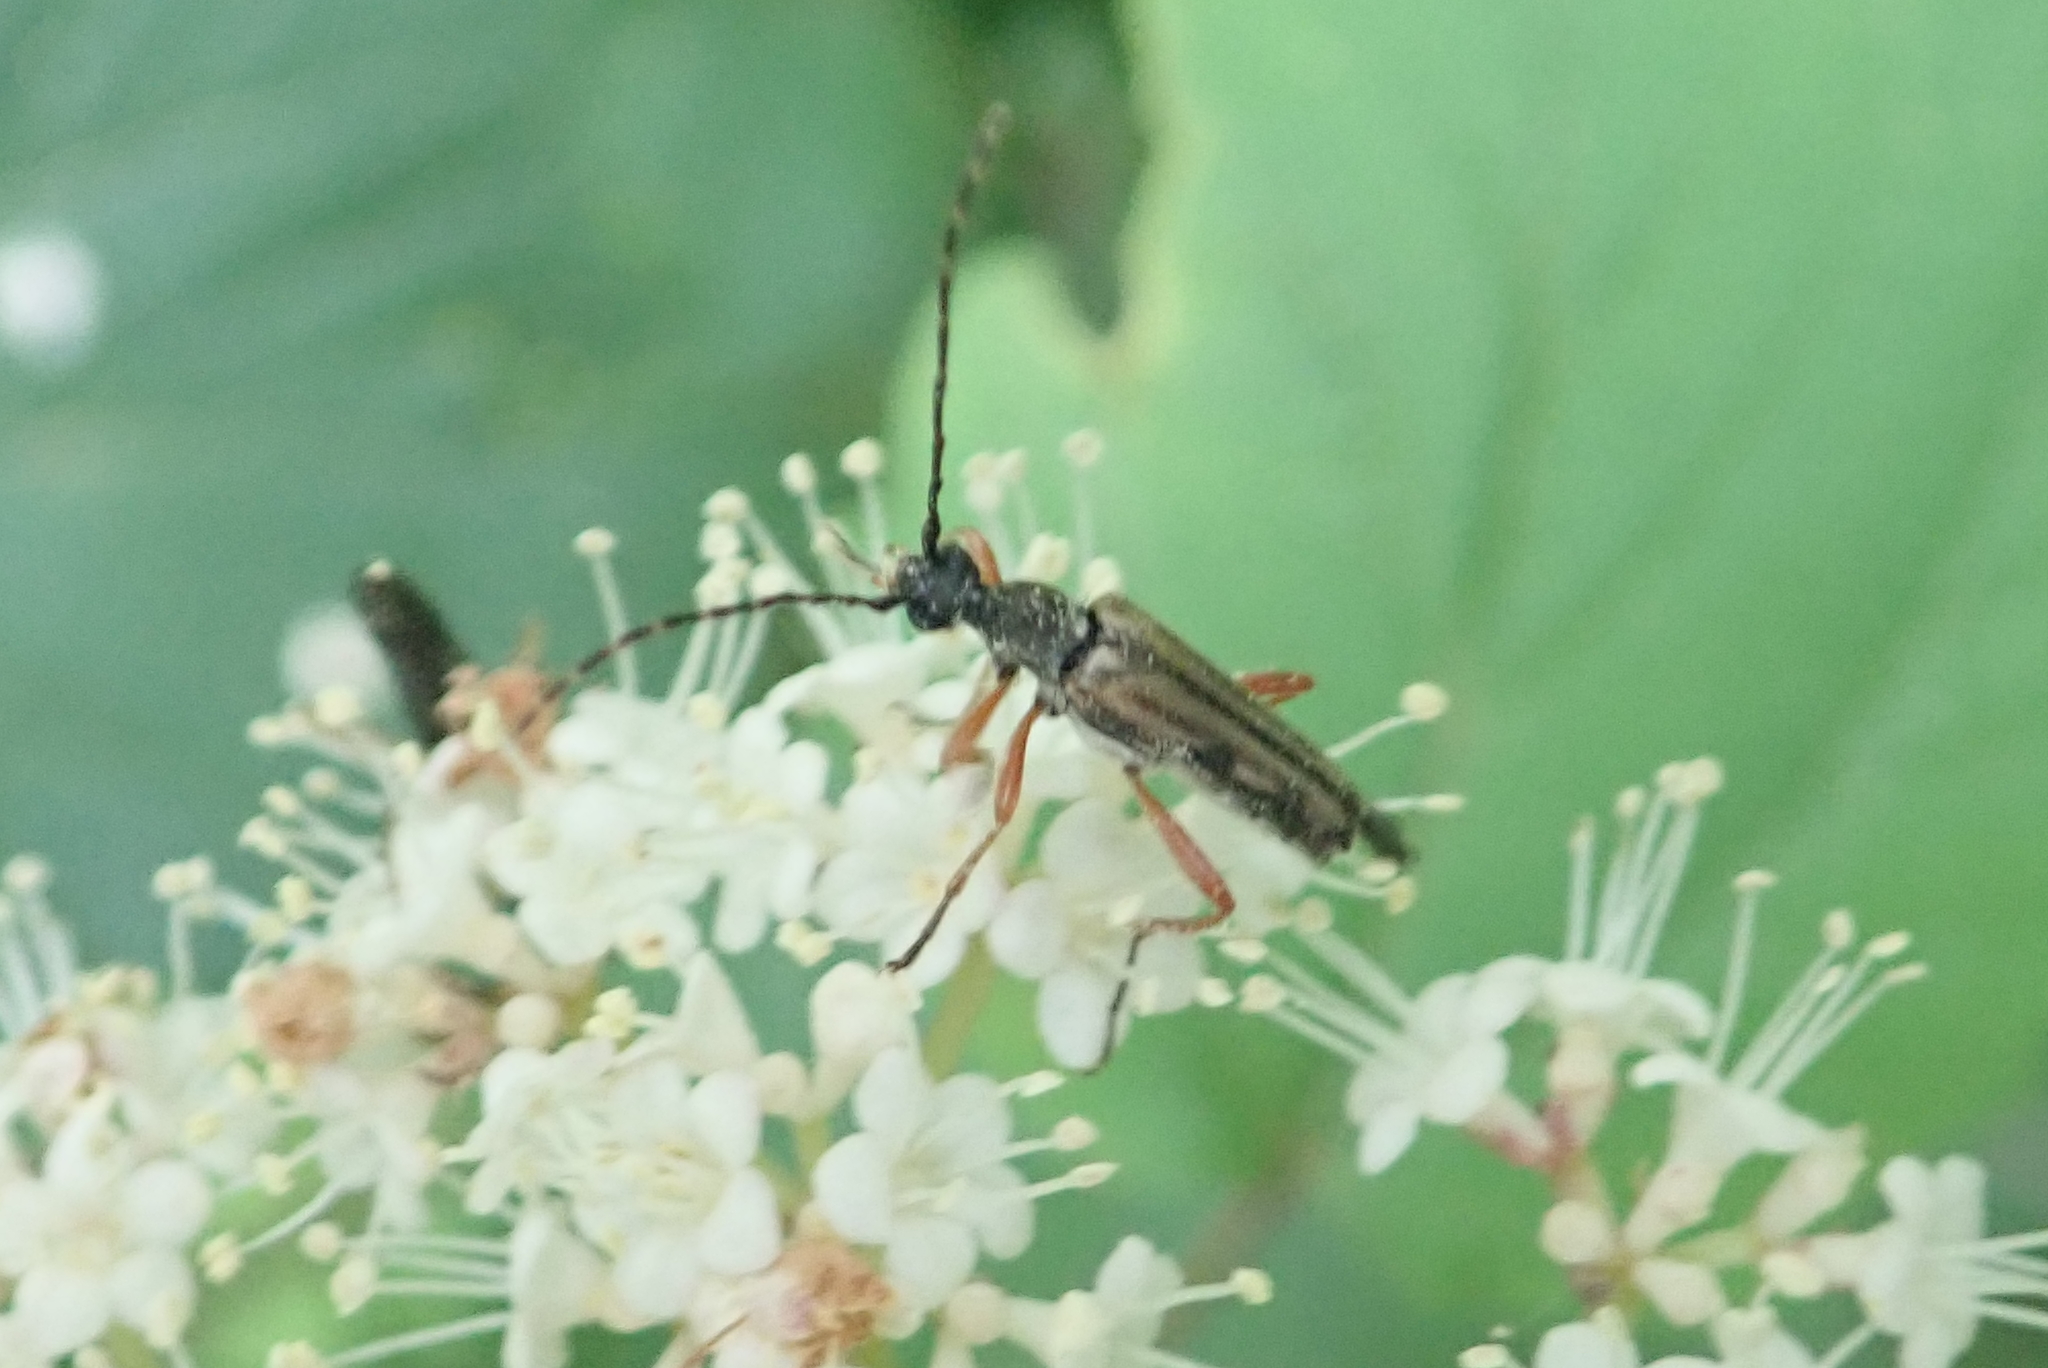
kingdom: Animalia
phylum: Arthropoda
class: Insecta
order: Coleoptera
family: Cerambycidae
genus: Analeptura
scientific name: Analeptura lineola
